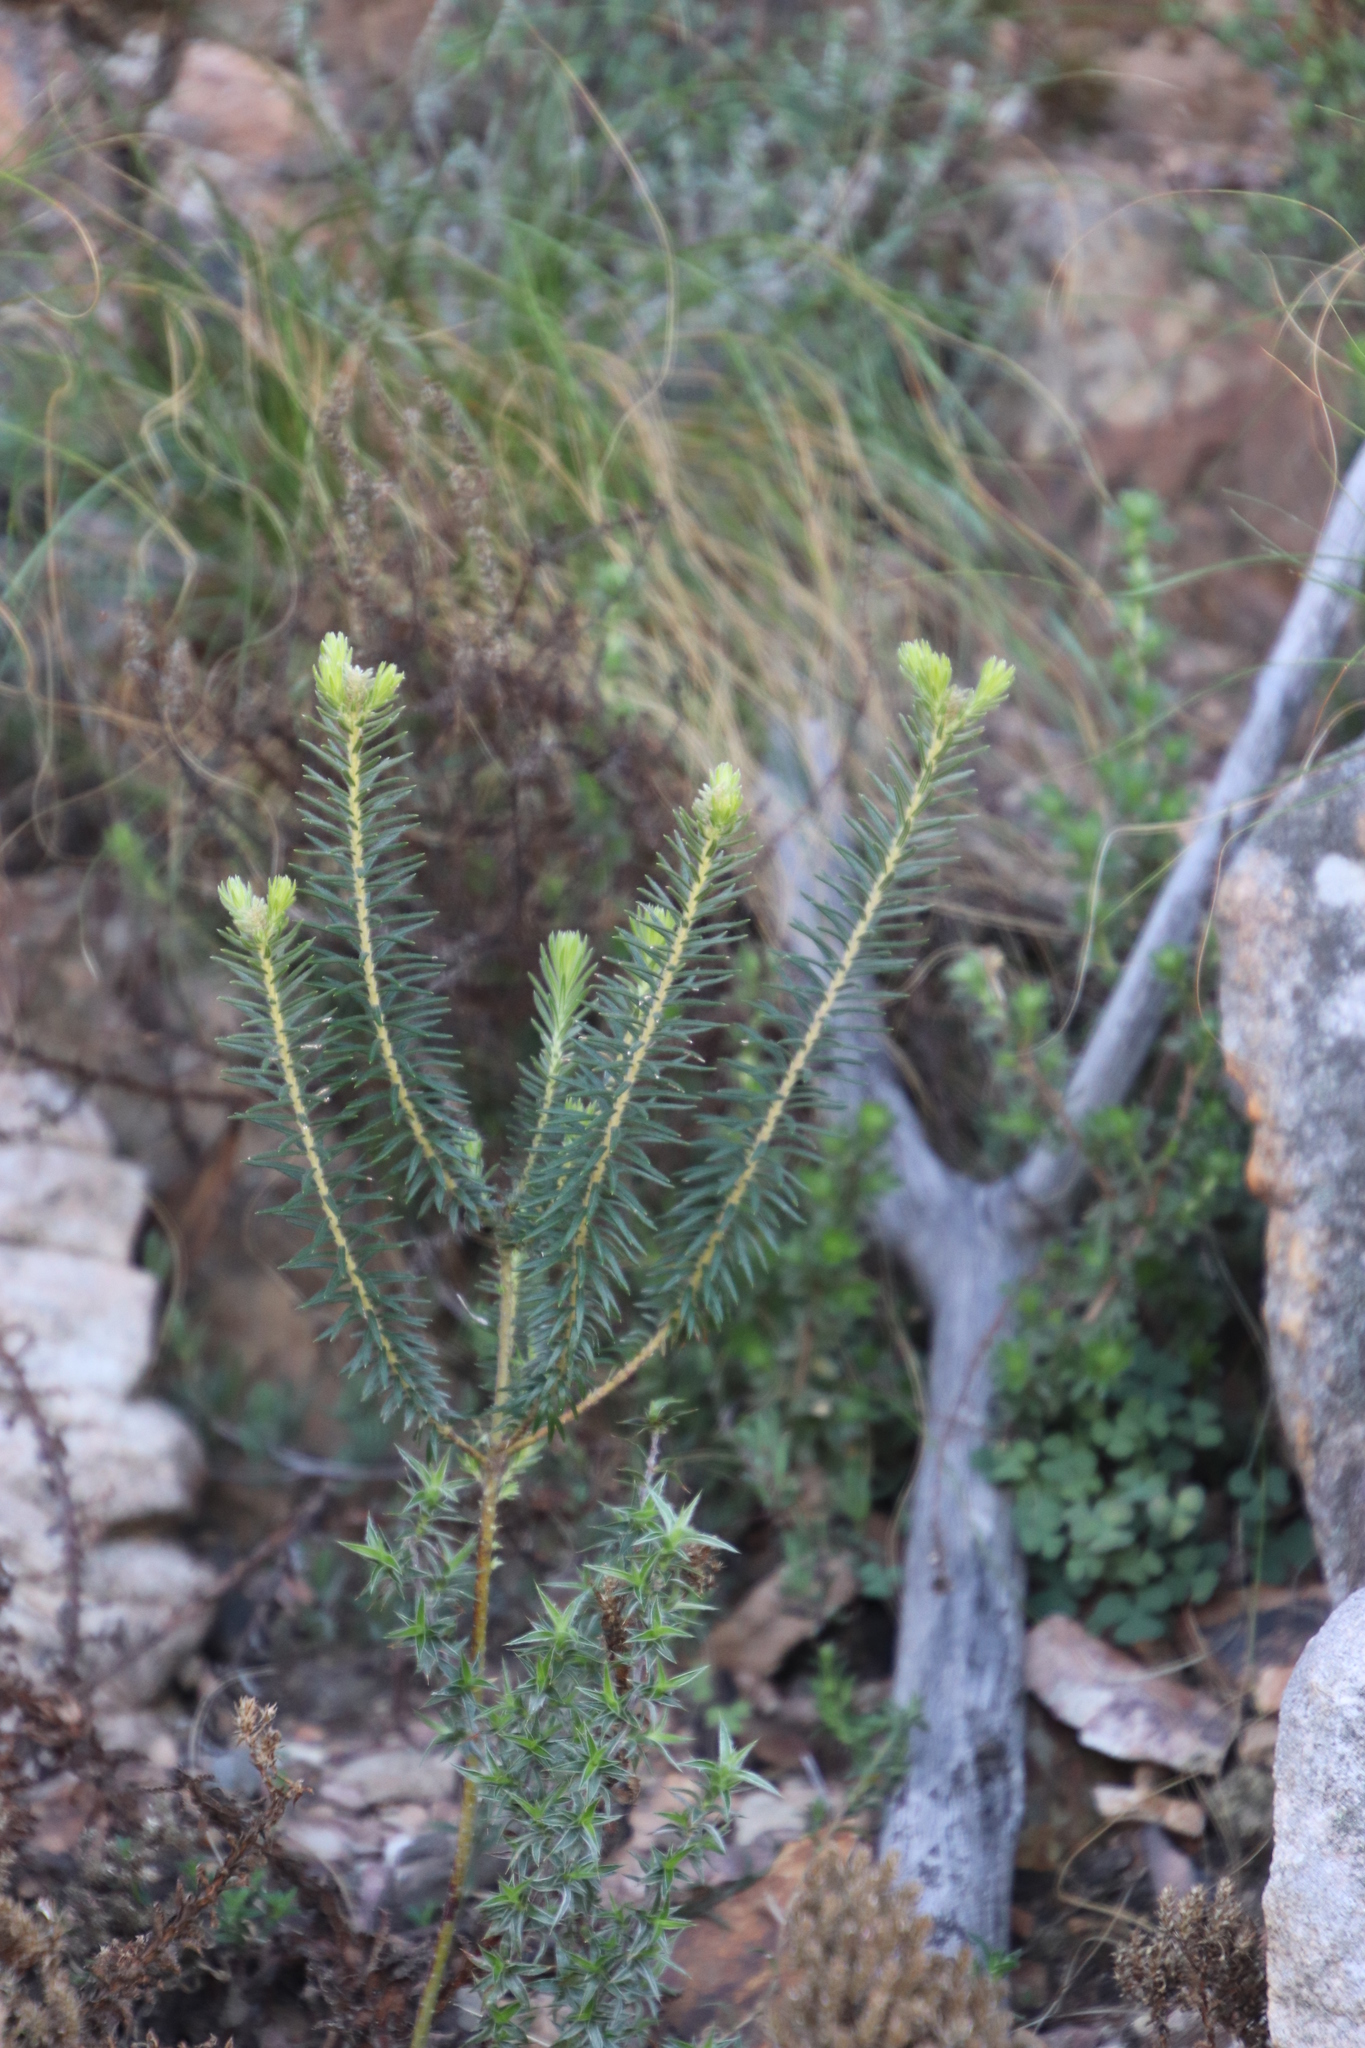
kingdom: Plantae
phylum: Tracheophyta
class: Magnoliopsida
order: Rosales
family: Rhamnaceae
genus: Phylica
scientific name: Phylica plumosa
